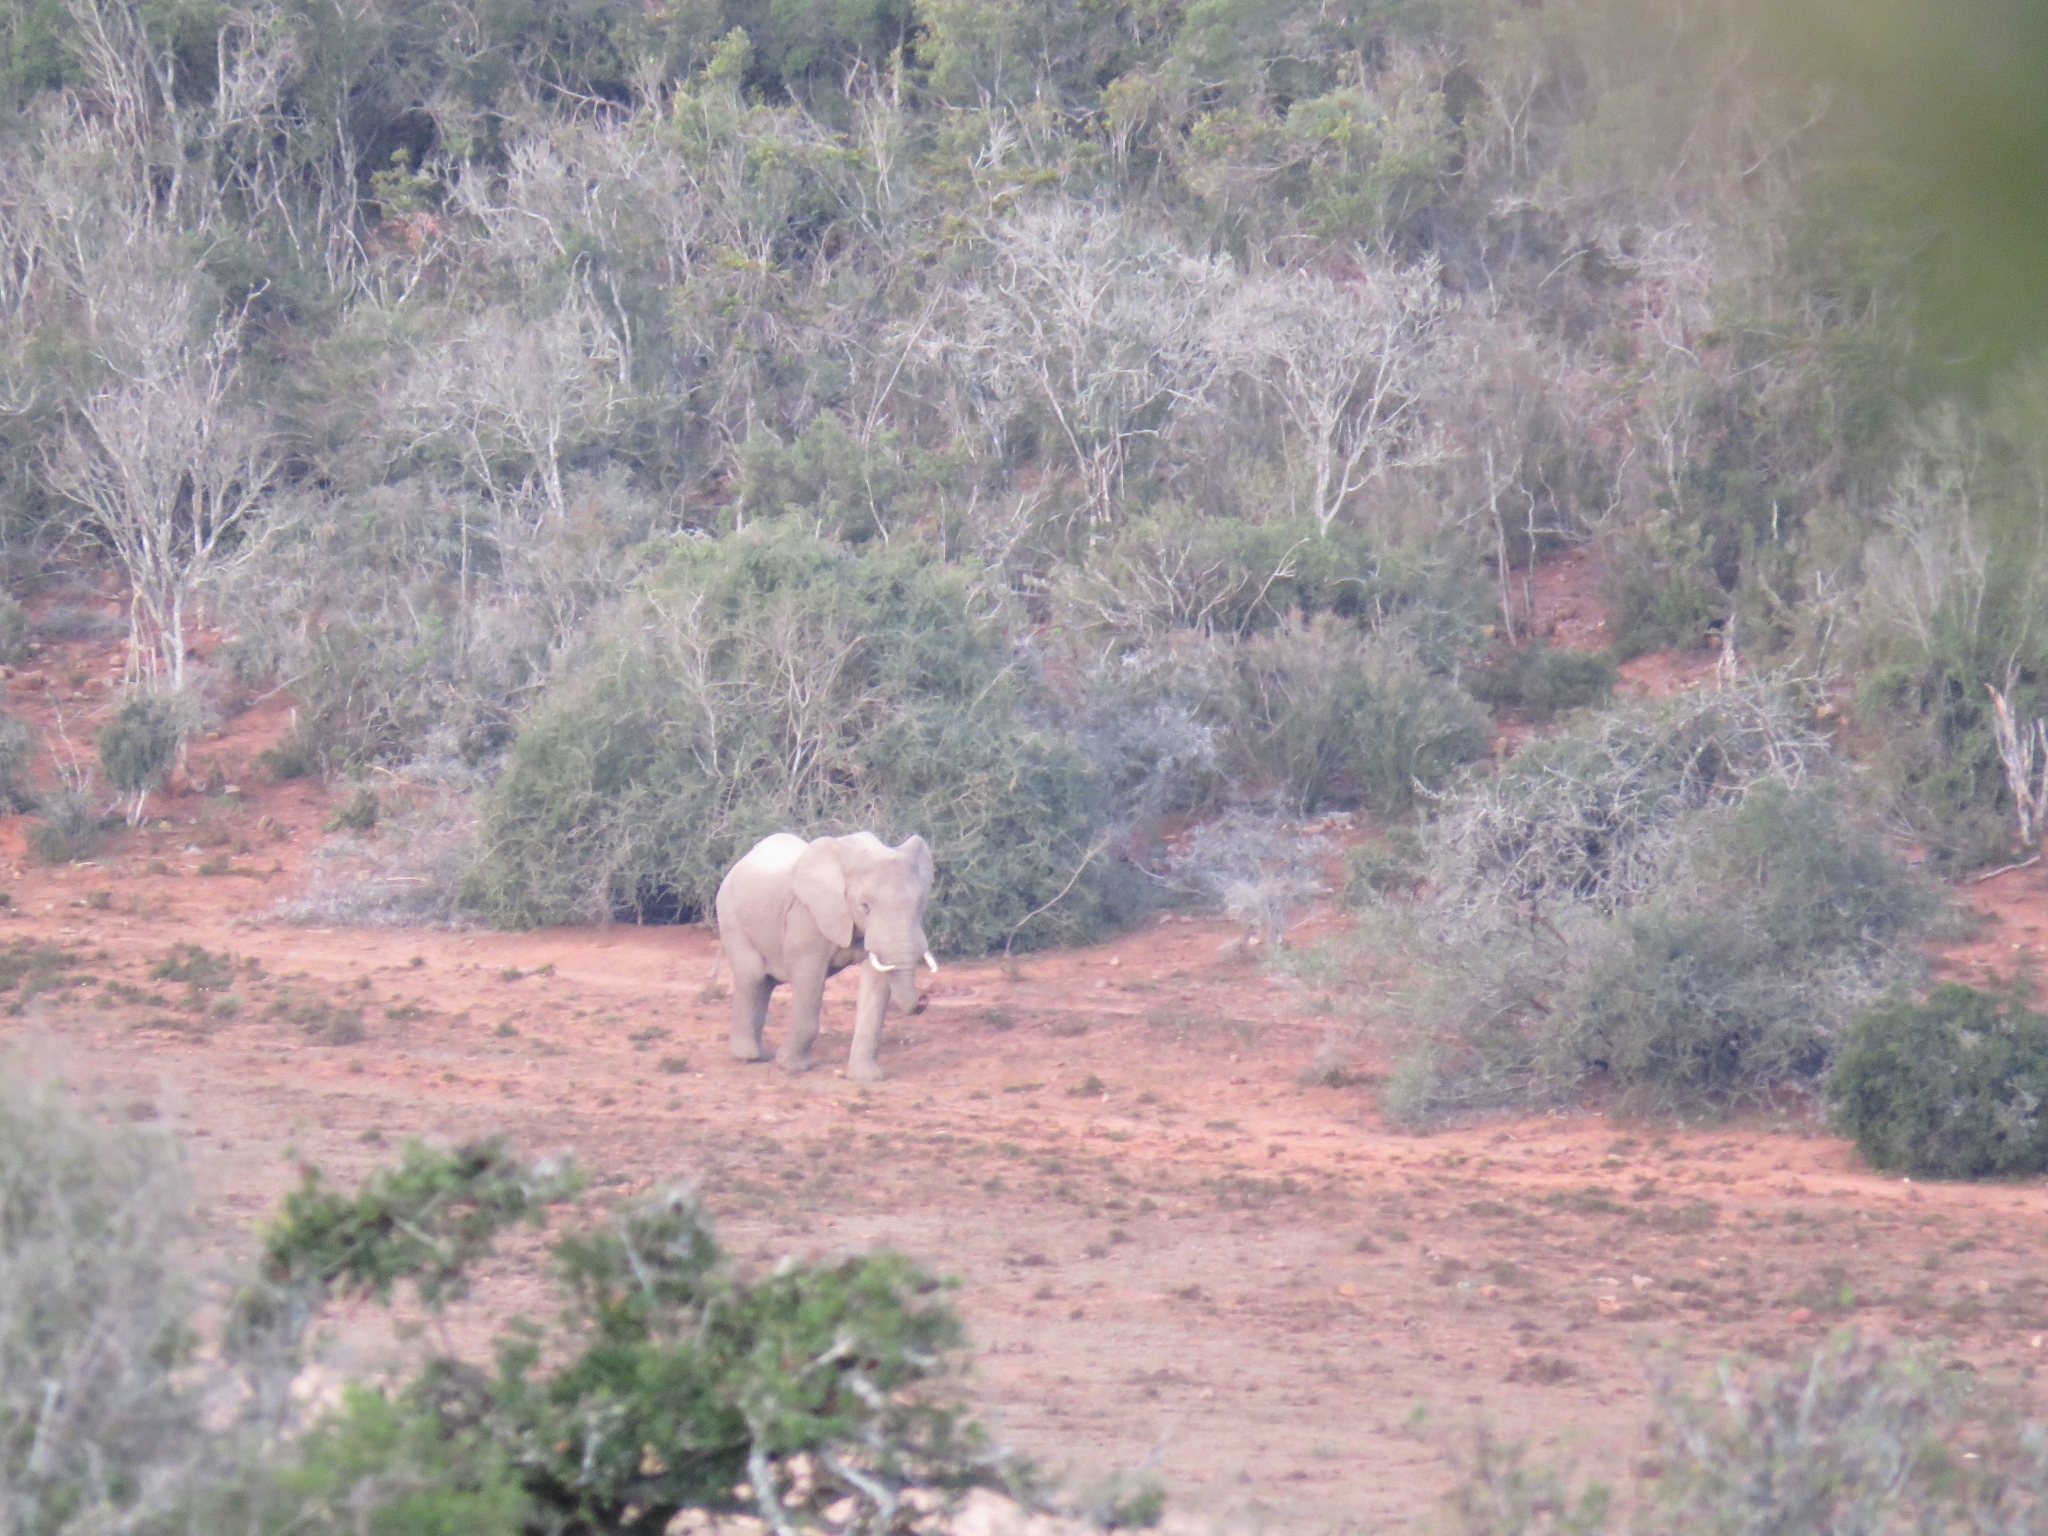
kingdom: Animalia
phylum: Chordata
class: Mammalia
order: Proboscidea
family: Elephantidae
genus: Loxodonta
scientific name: Loxodonta africana
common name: African elephant
